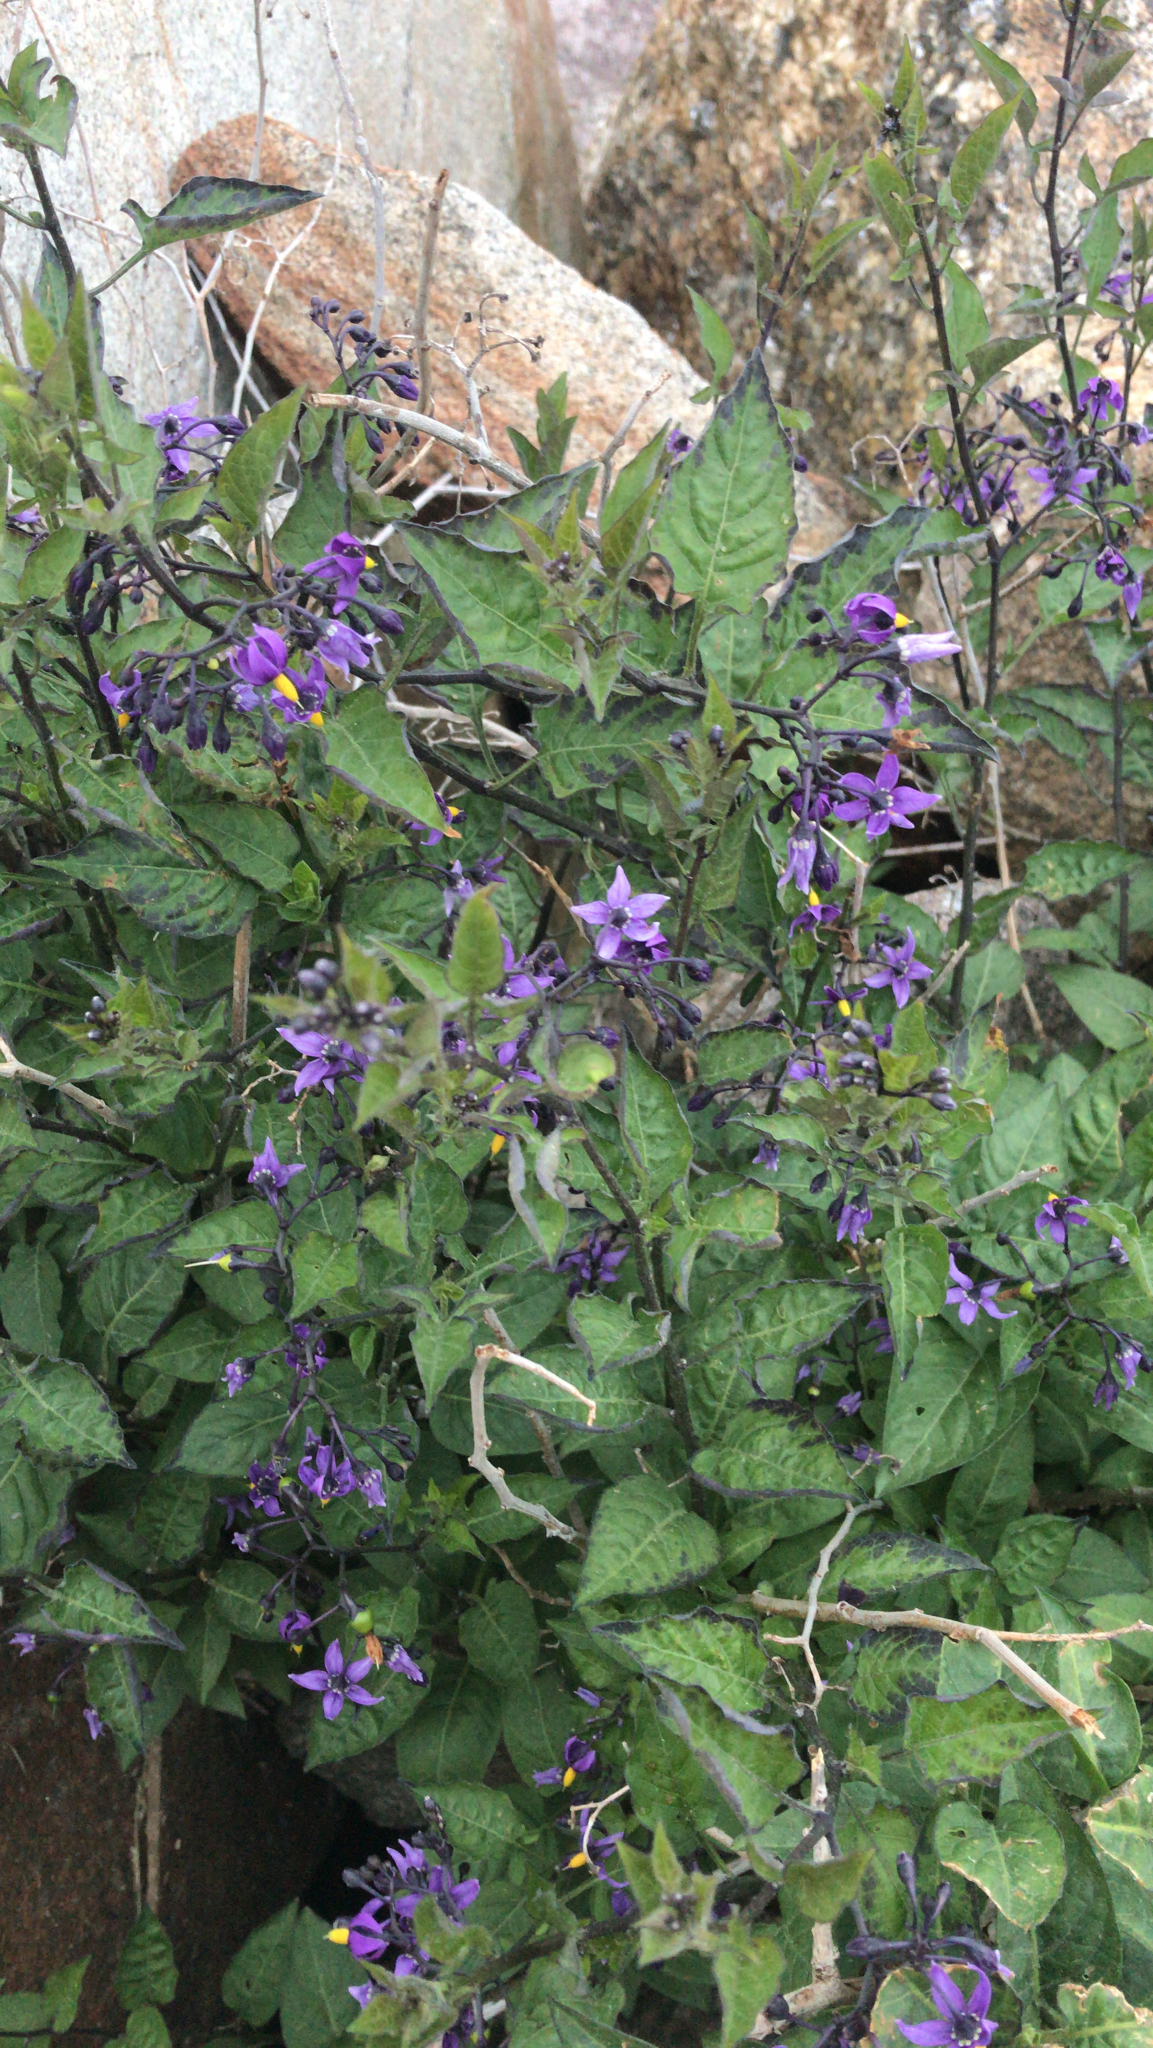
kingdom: Plantae
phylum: Tracheophyta
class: Magnoliopsida
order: Solanales
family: Solanaceae
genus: Solanum
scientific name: Solanum dulcamara
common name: Climbing nightshade
